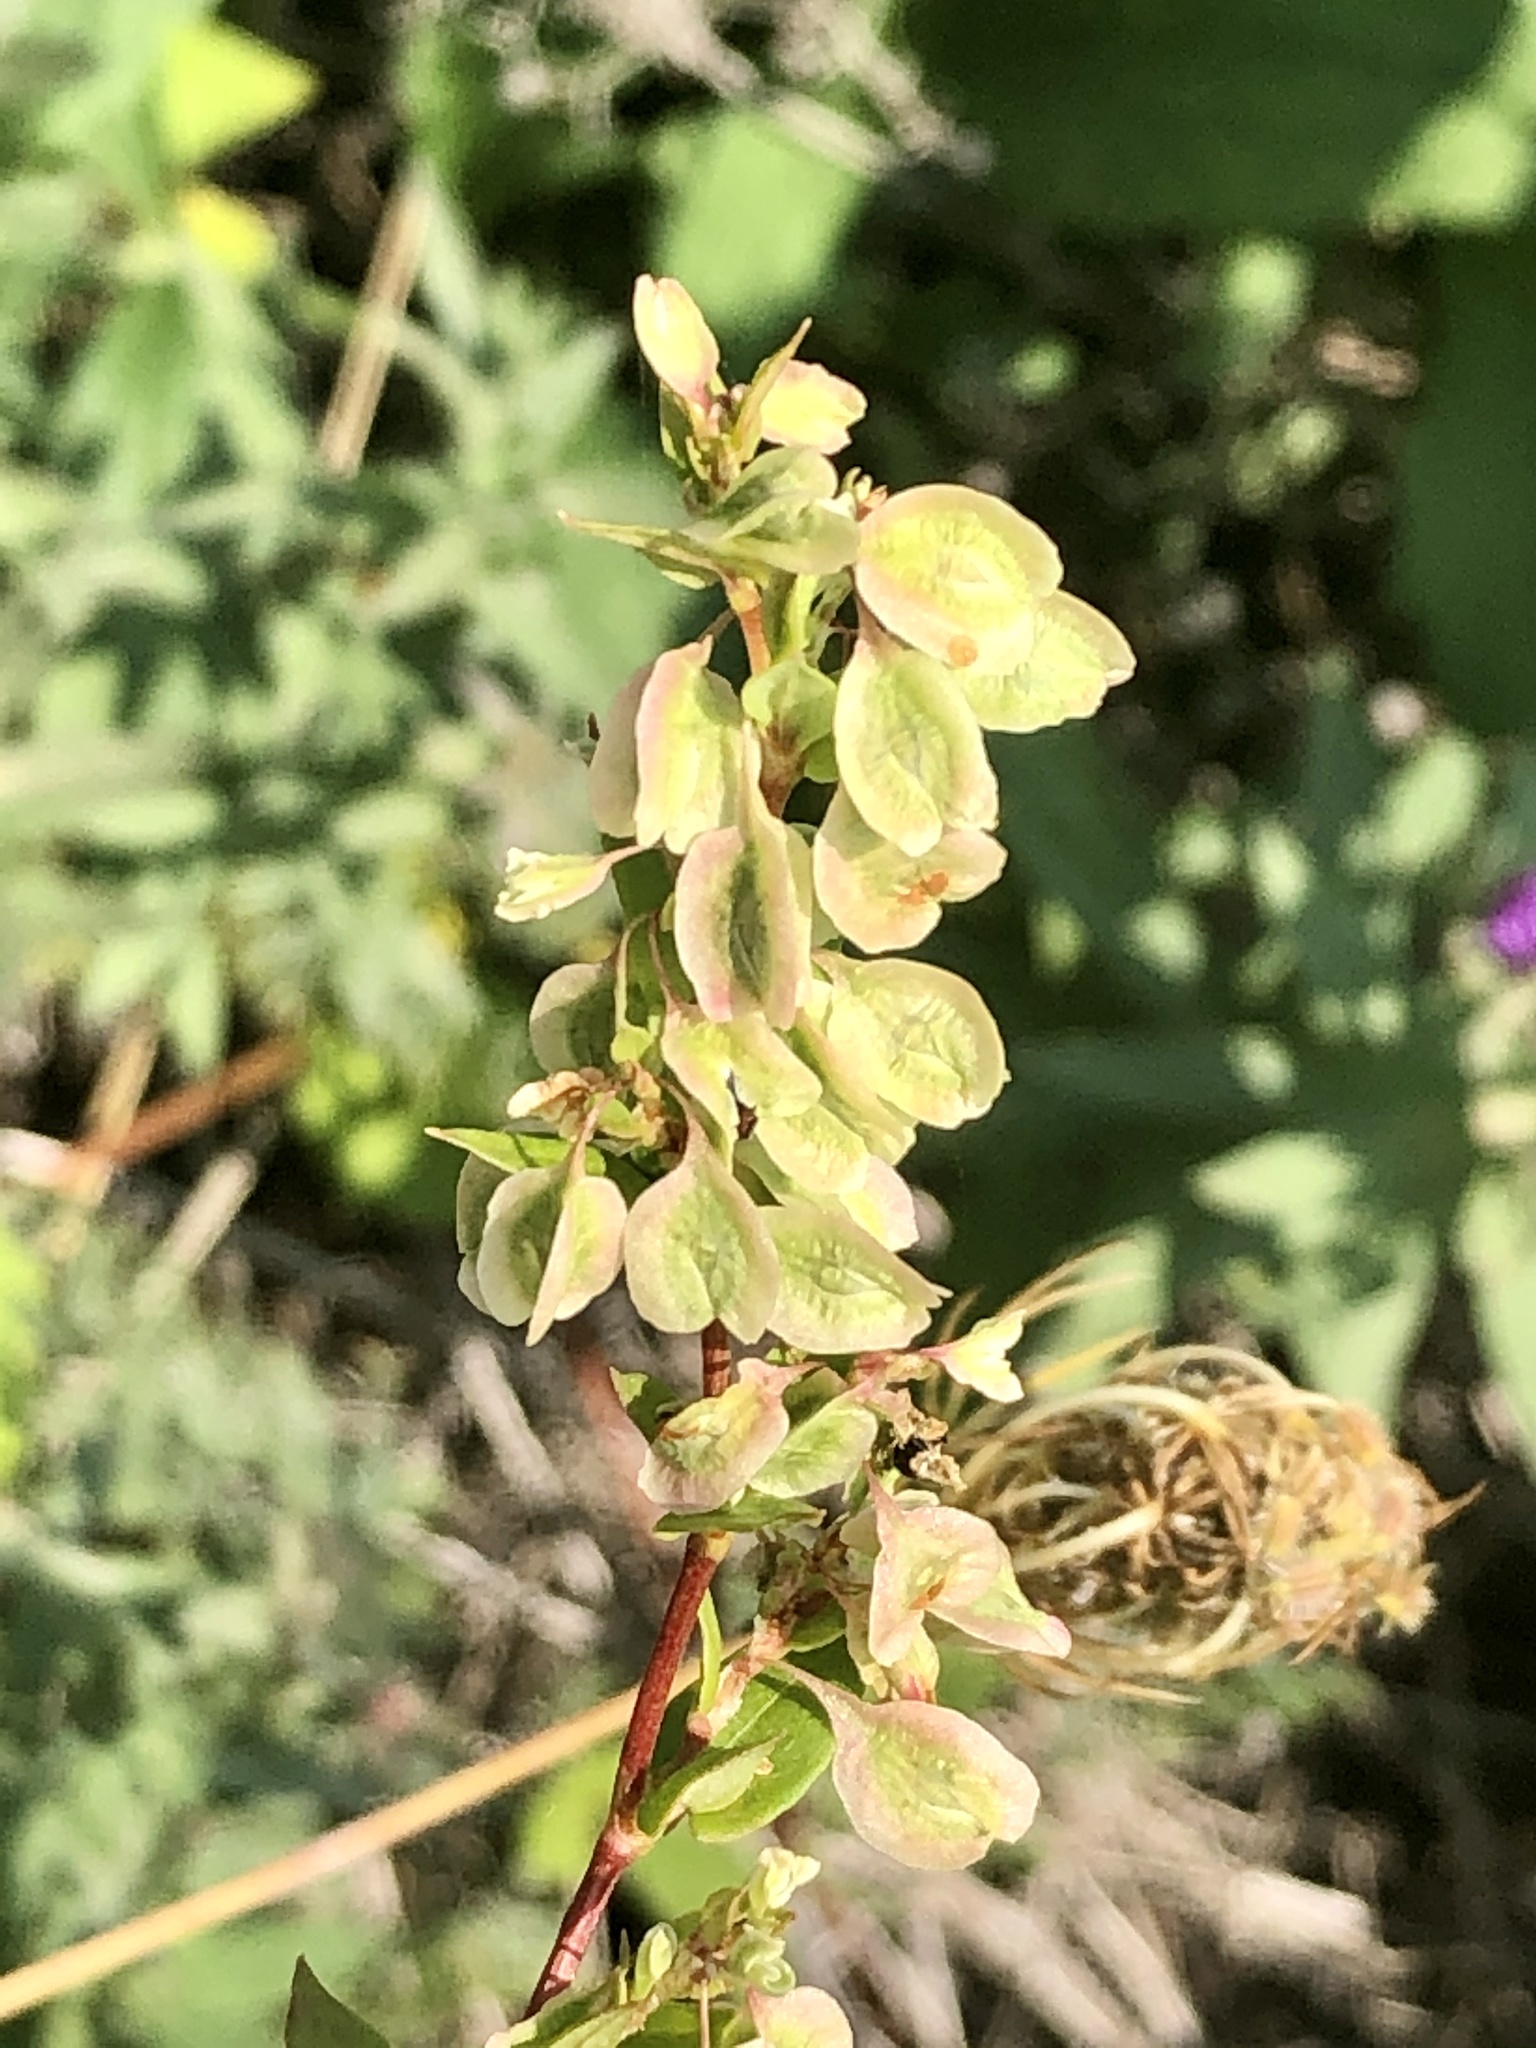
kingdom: Plantae
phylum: Tracheophyta
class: Magnoliopsida
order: Caryophyllales
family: Polygonaceae
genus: Fallopia
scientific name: Fallopia scandens
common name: Climbing false buckwheat
